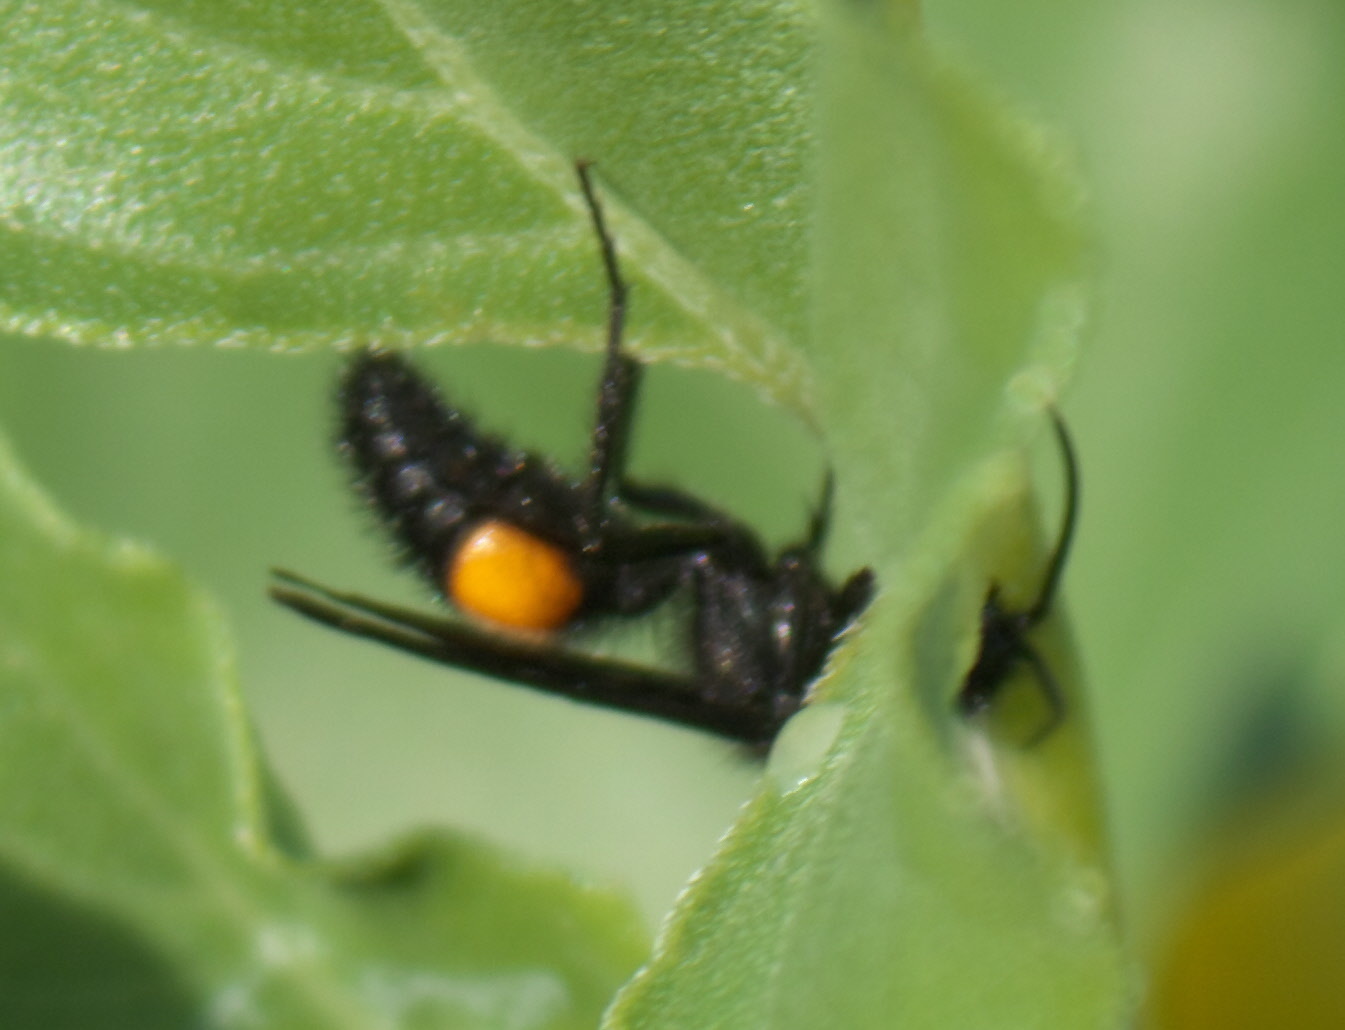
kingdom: Animalia
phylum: Arthropoda
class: Insecta
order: Hymenoptera
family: Mutillidae
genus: Dasymutilla
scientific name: Dasymutilla
